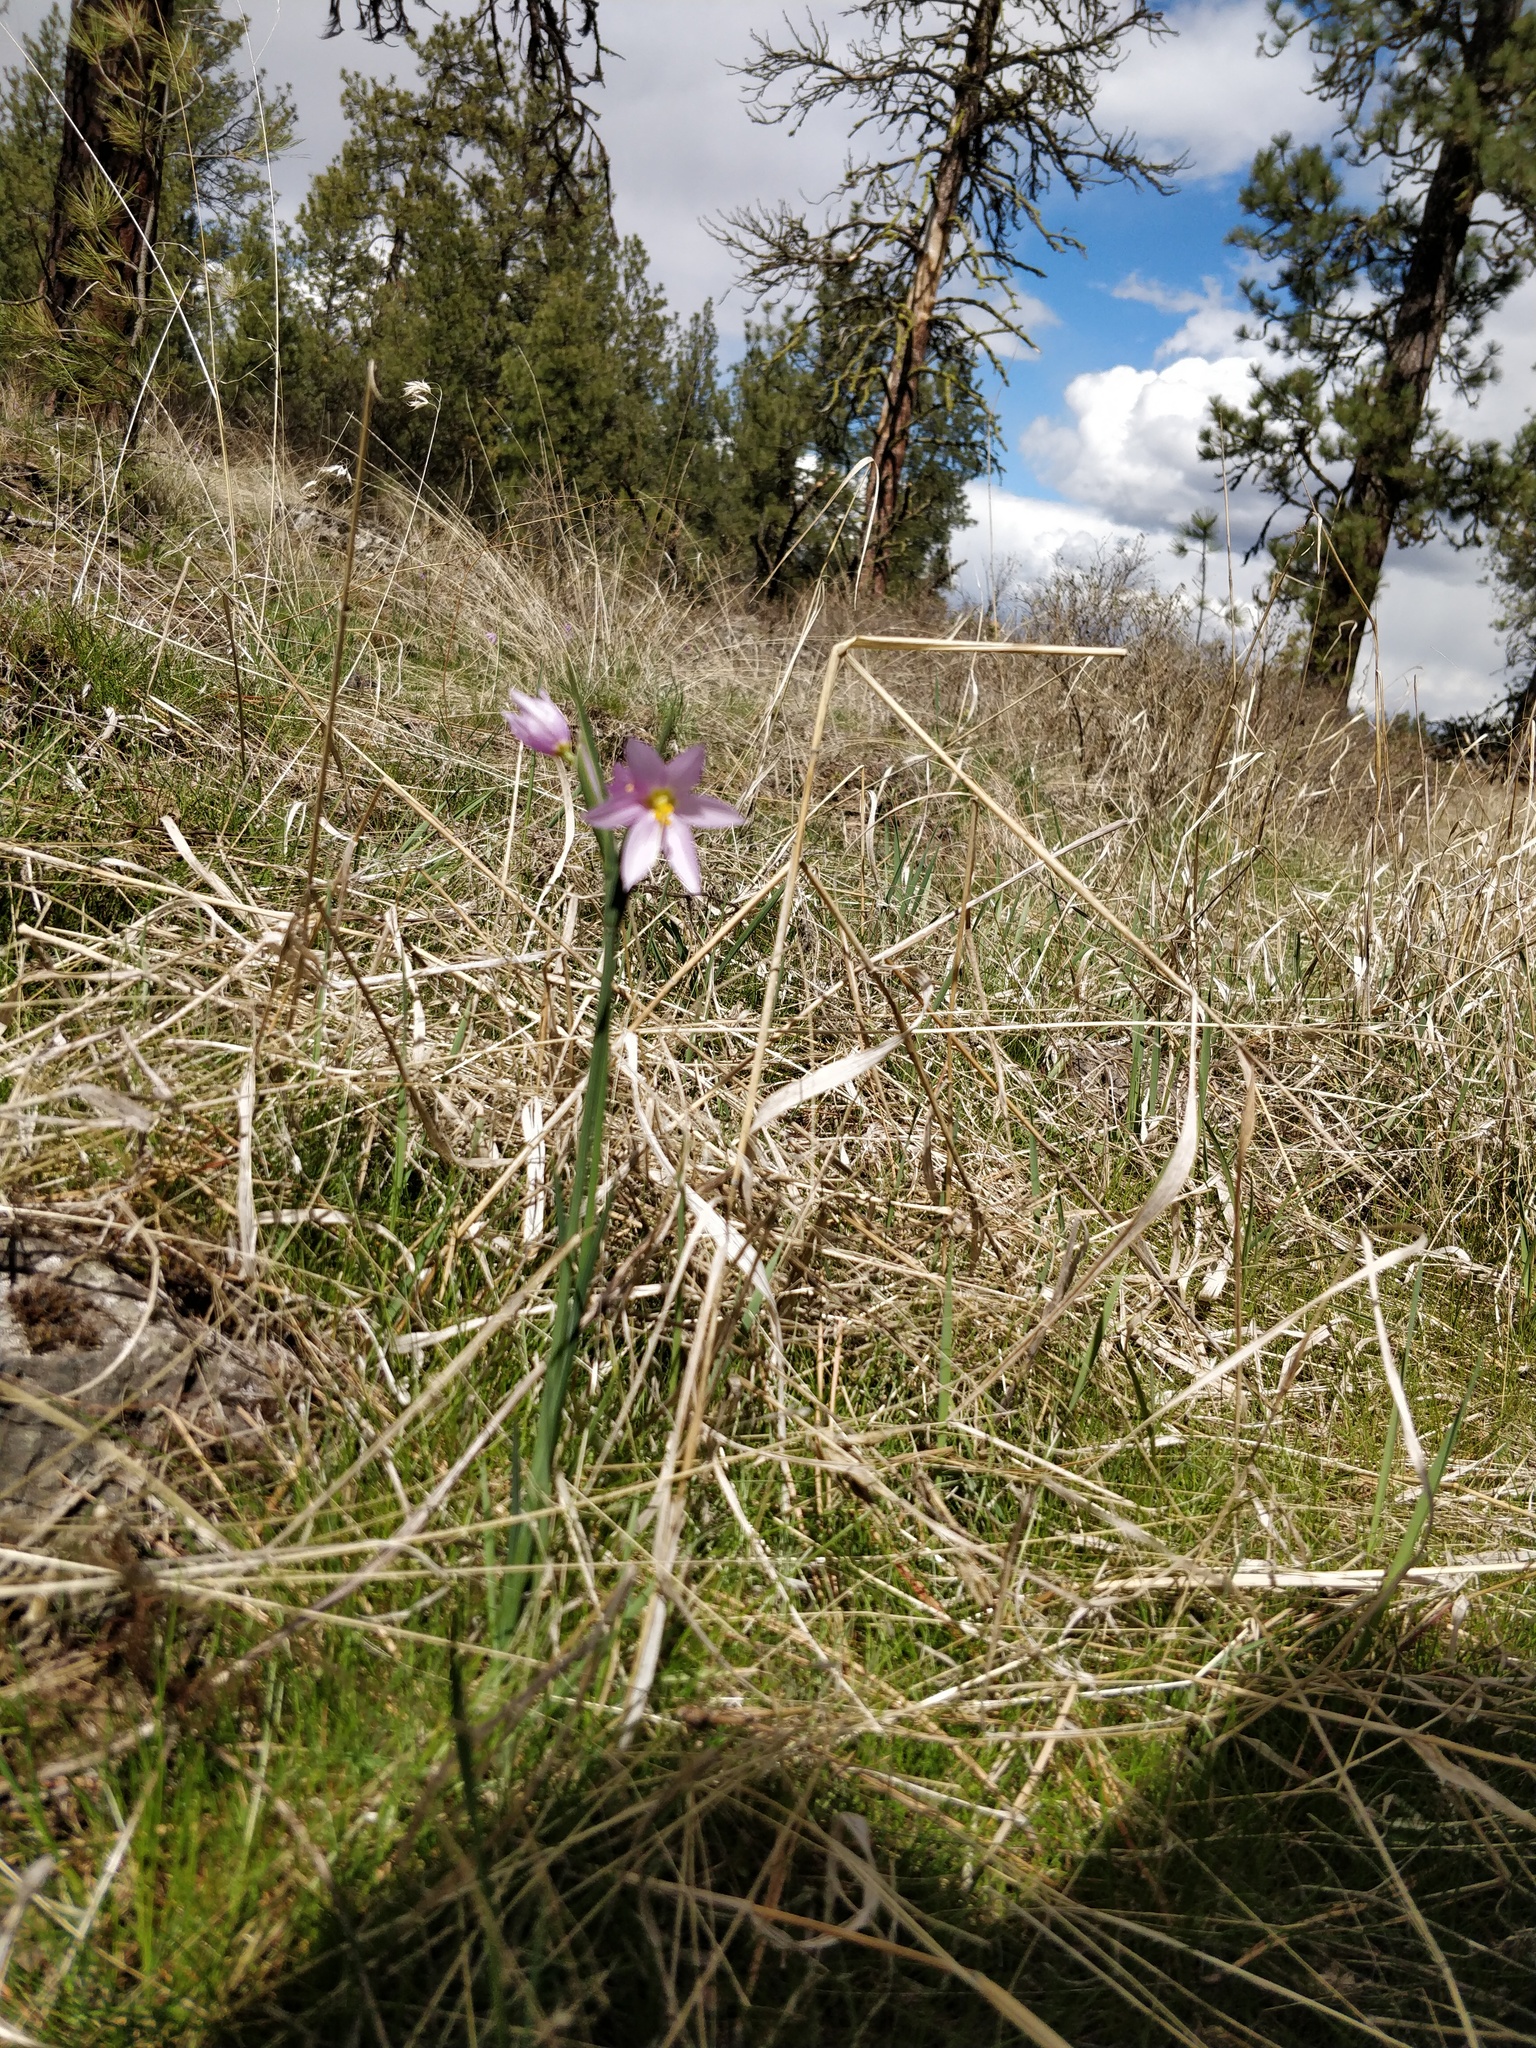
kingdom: Plantae
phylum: Tracheophyta
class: Liliopsida
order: Asparagales
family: Iridaceae
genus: Olsynium
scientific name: Olsynium douglasii
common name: Douglas' grasswidow
